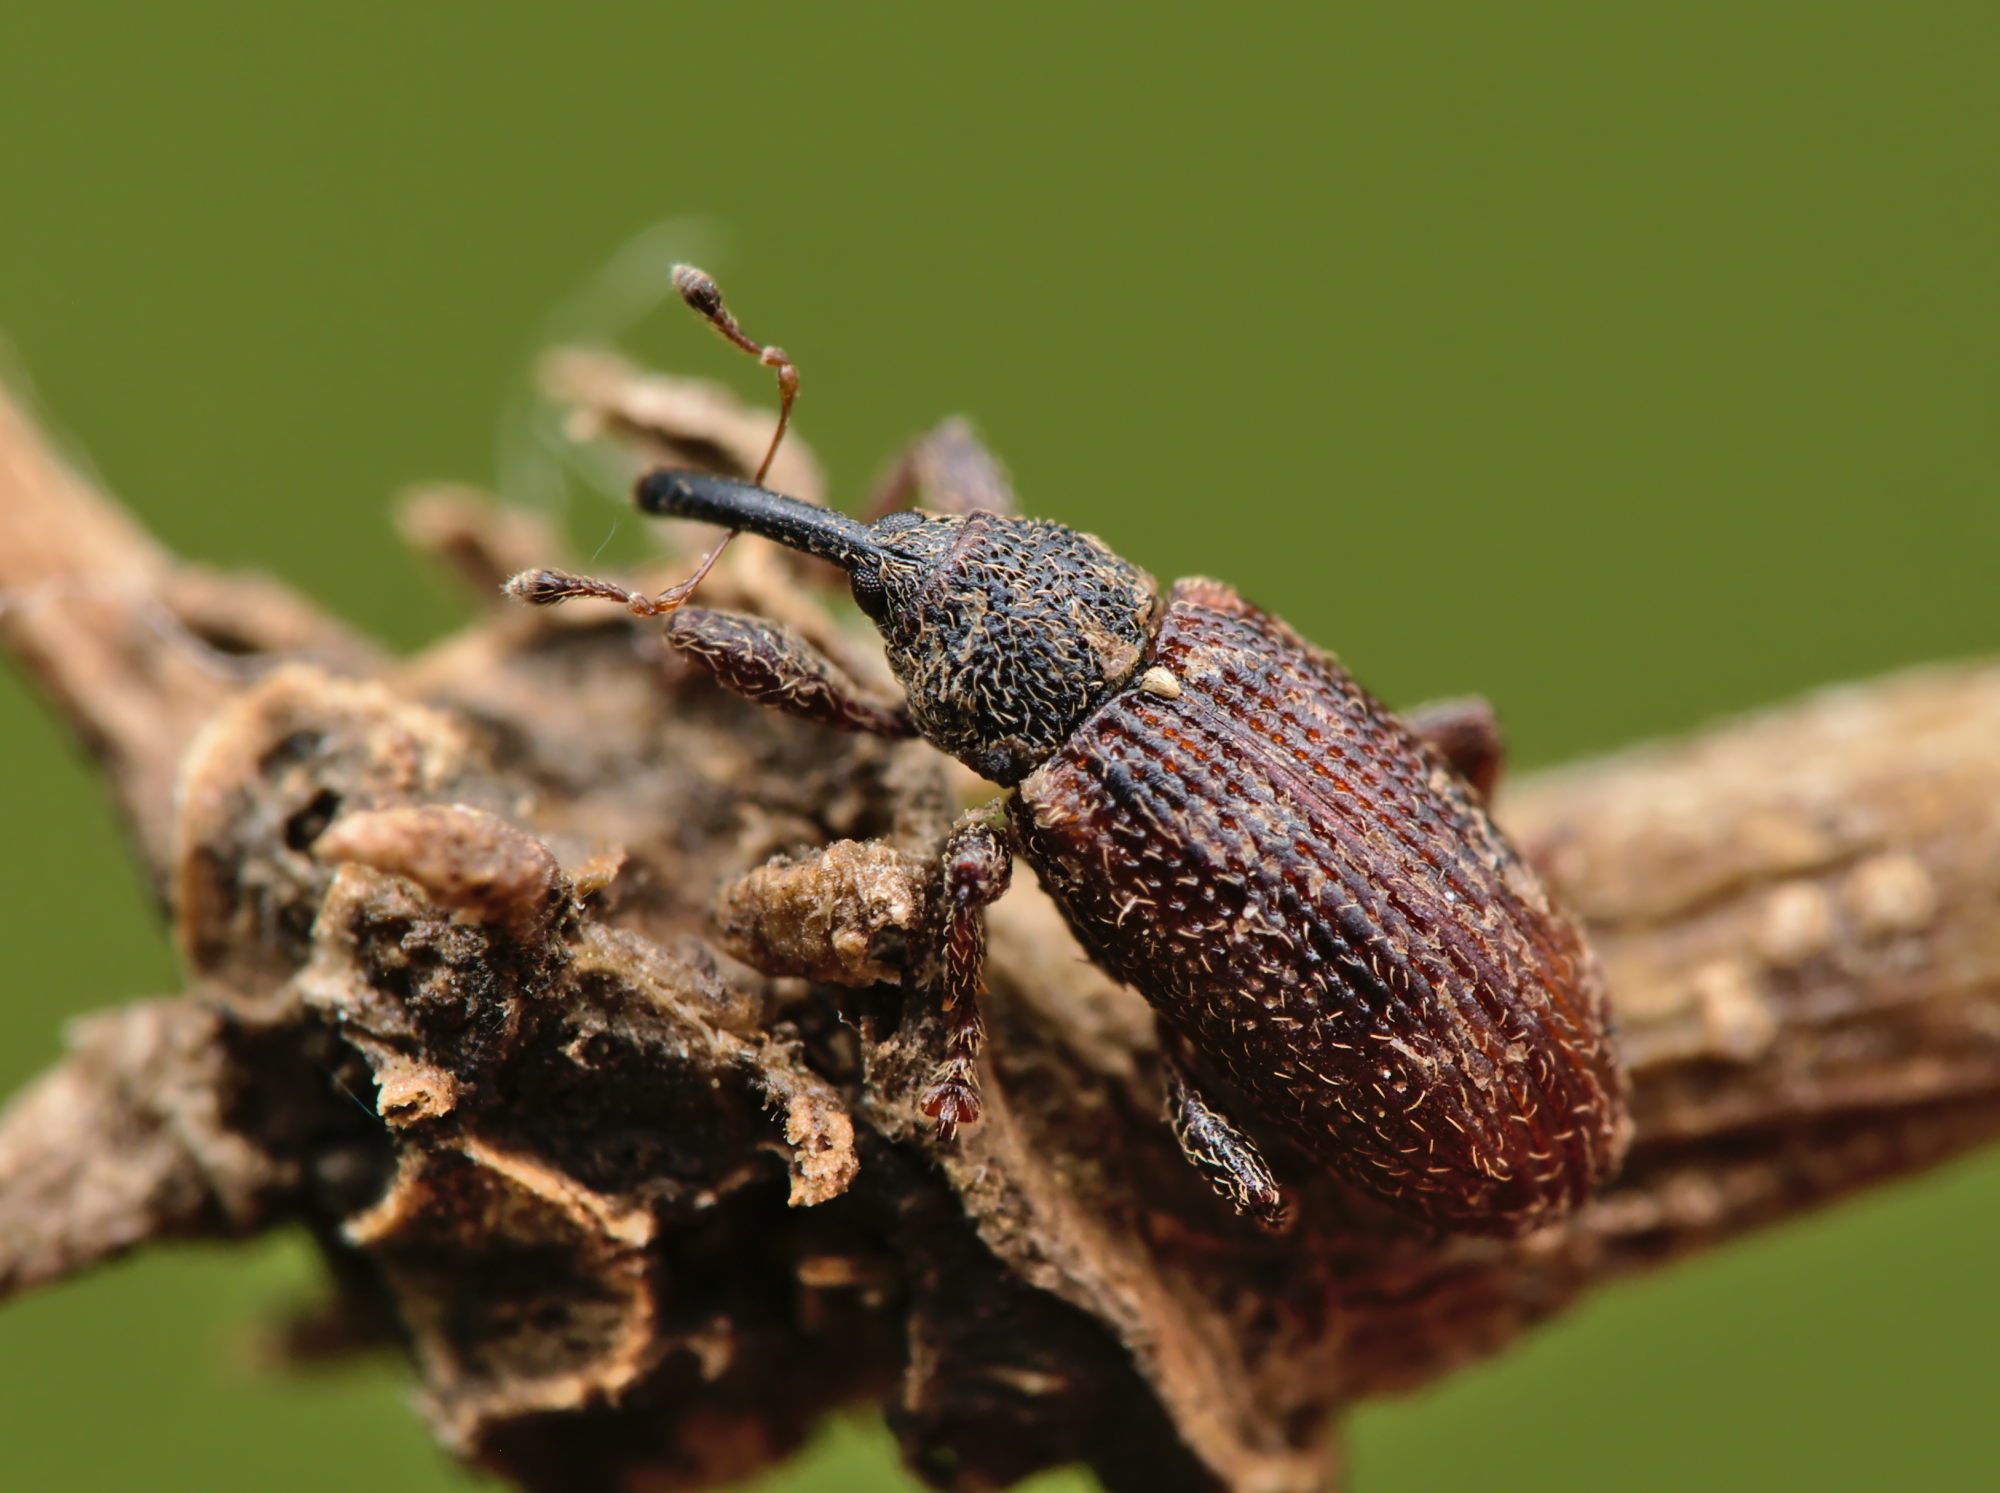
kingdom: Animalia
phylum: Arthropoda
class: Insecta
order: Coleoptera
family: Curculionidae
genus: Bradybatus
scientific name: Bradybatus kellneri
